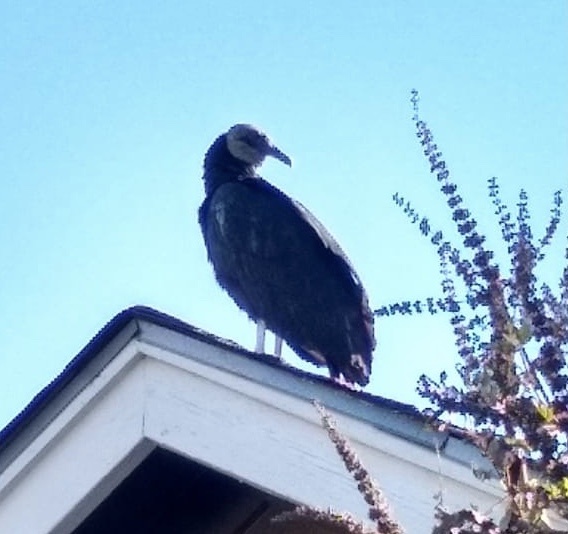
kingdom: Animalia
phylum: Chordata
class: Aves
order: Accipitriformes
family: Cathartidae
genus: Coragyps
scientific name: Coragyps atratus
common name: Black vulture
